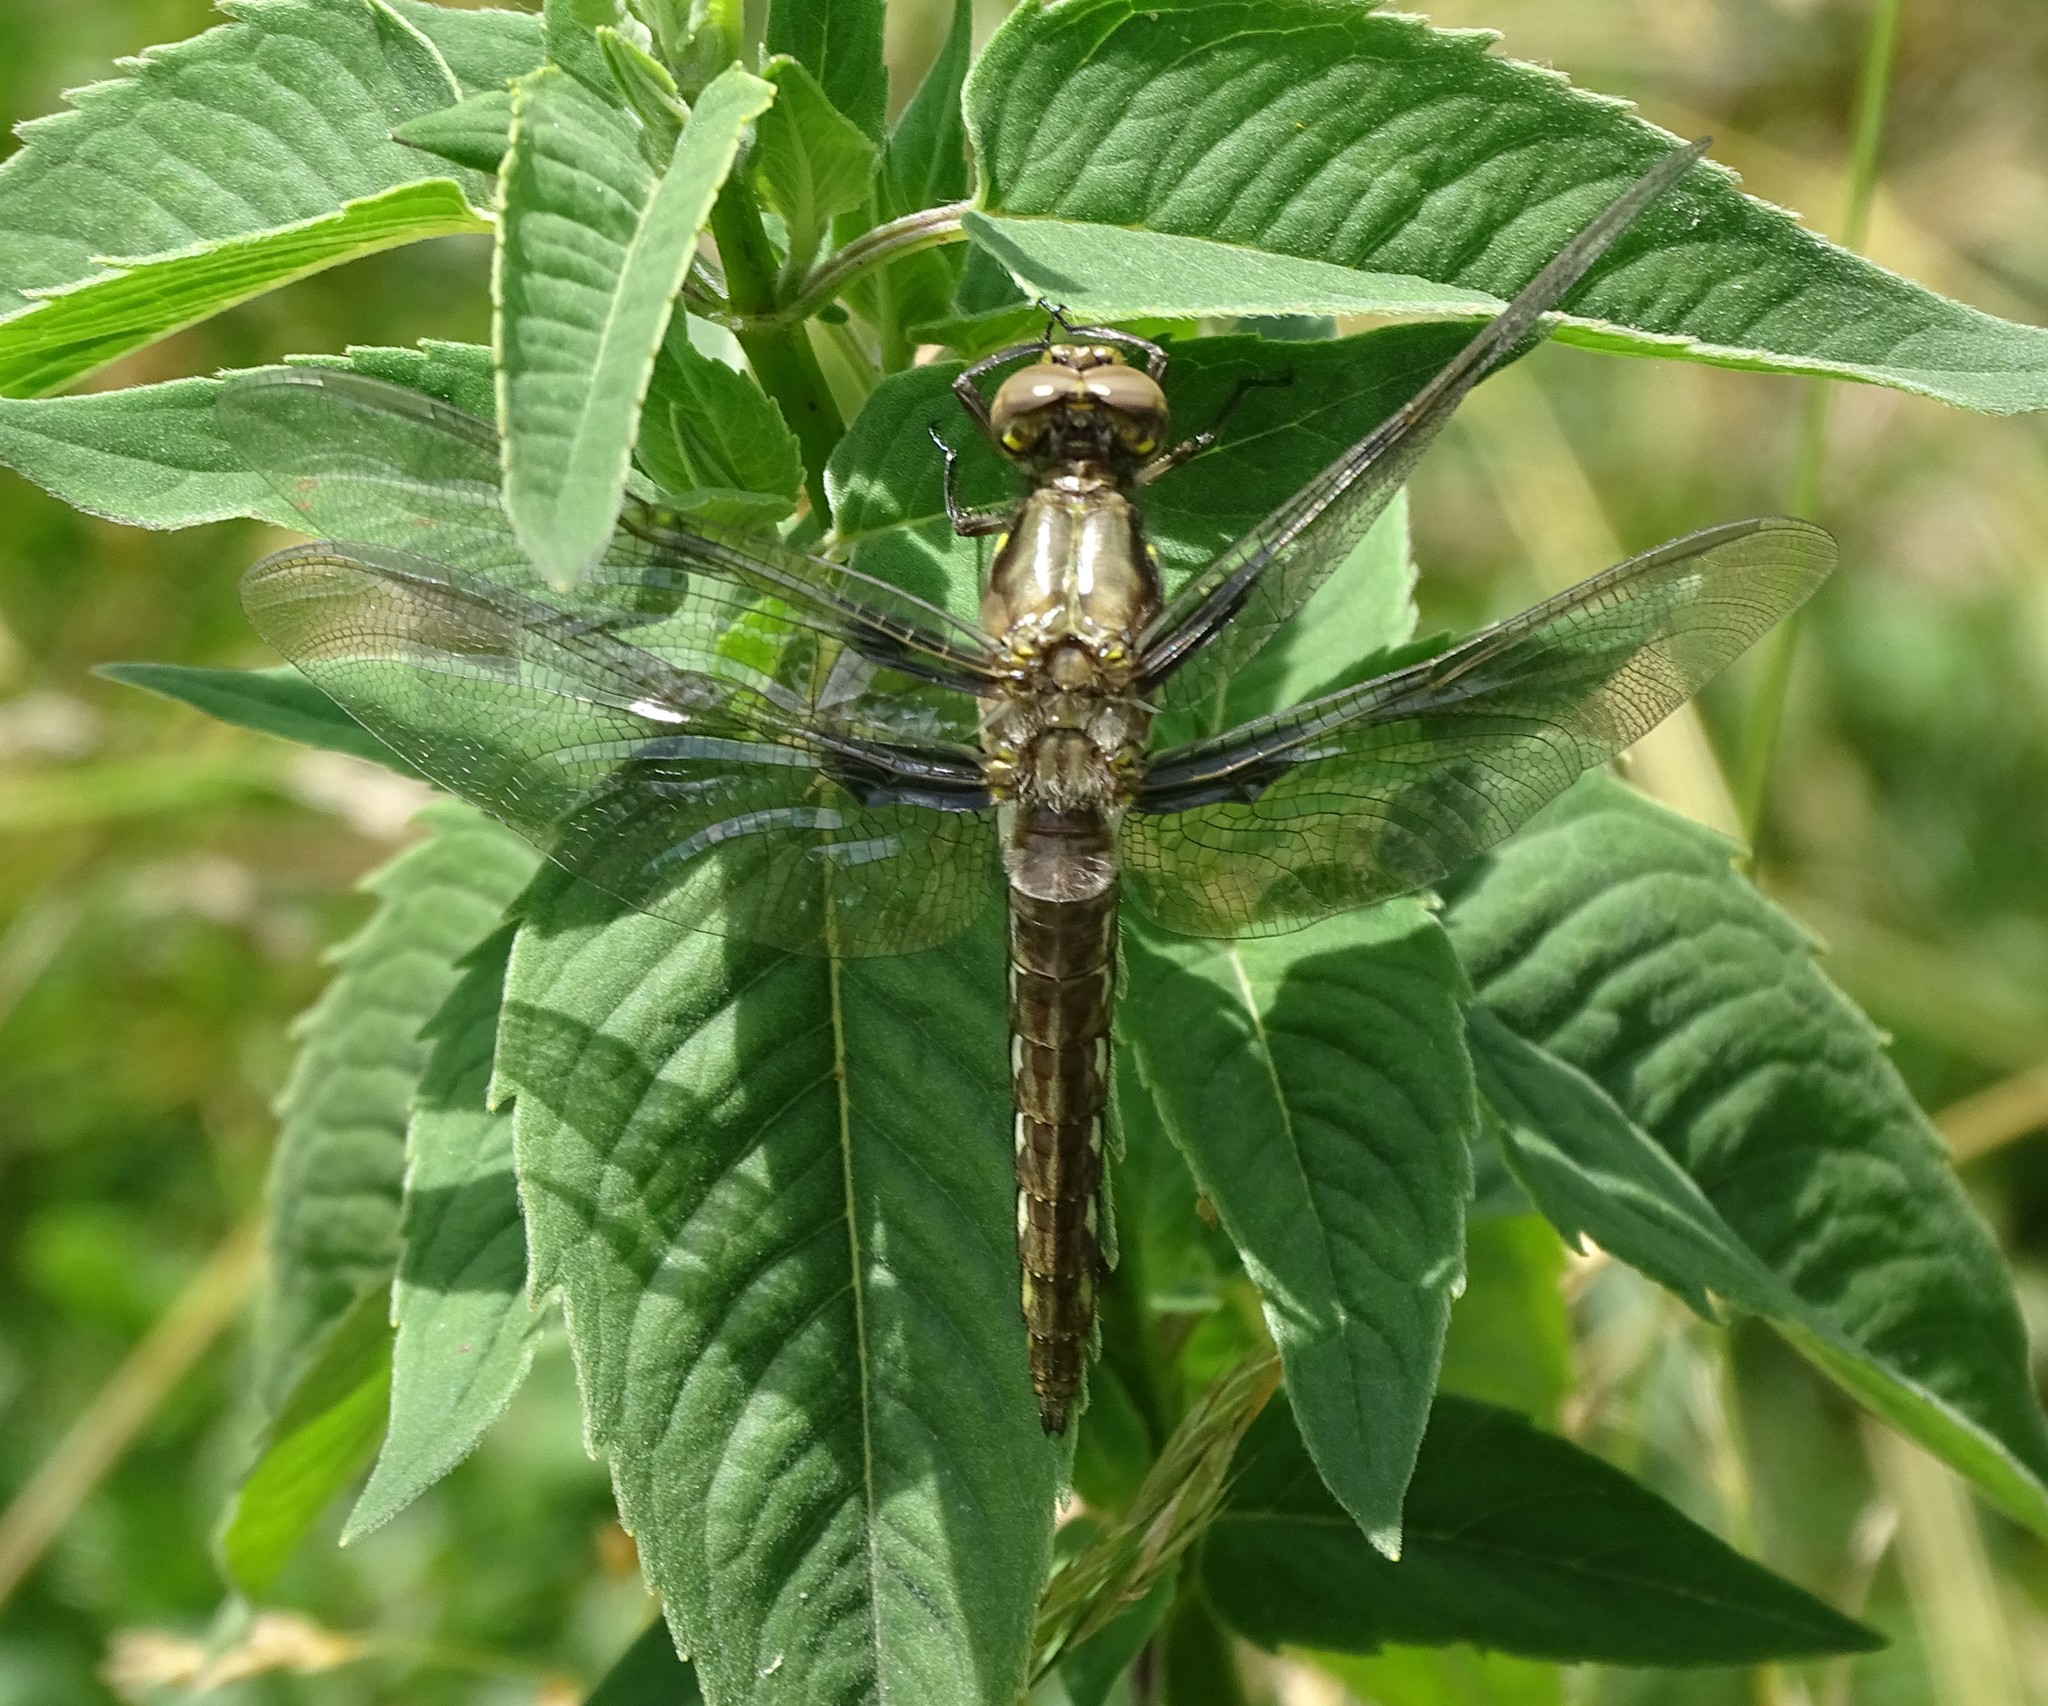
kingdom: Animalia
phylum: Arthropoda
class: Insecta
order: Odonata
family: Libellulidae
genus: Plathemis
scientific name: Plathemis lydia
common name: Common whitetail
